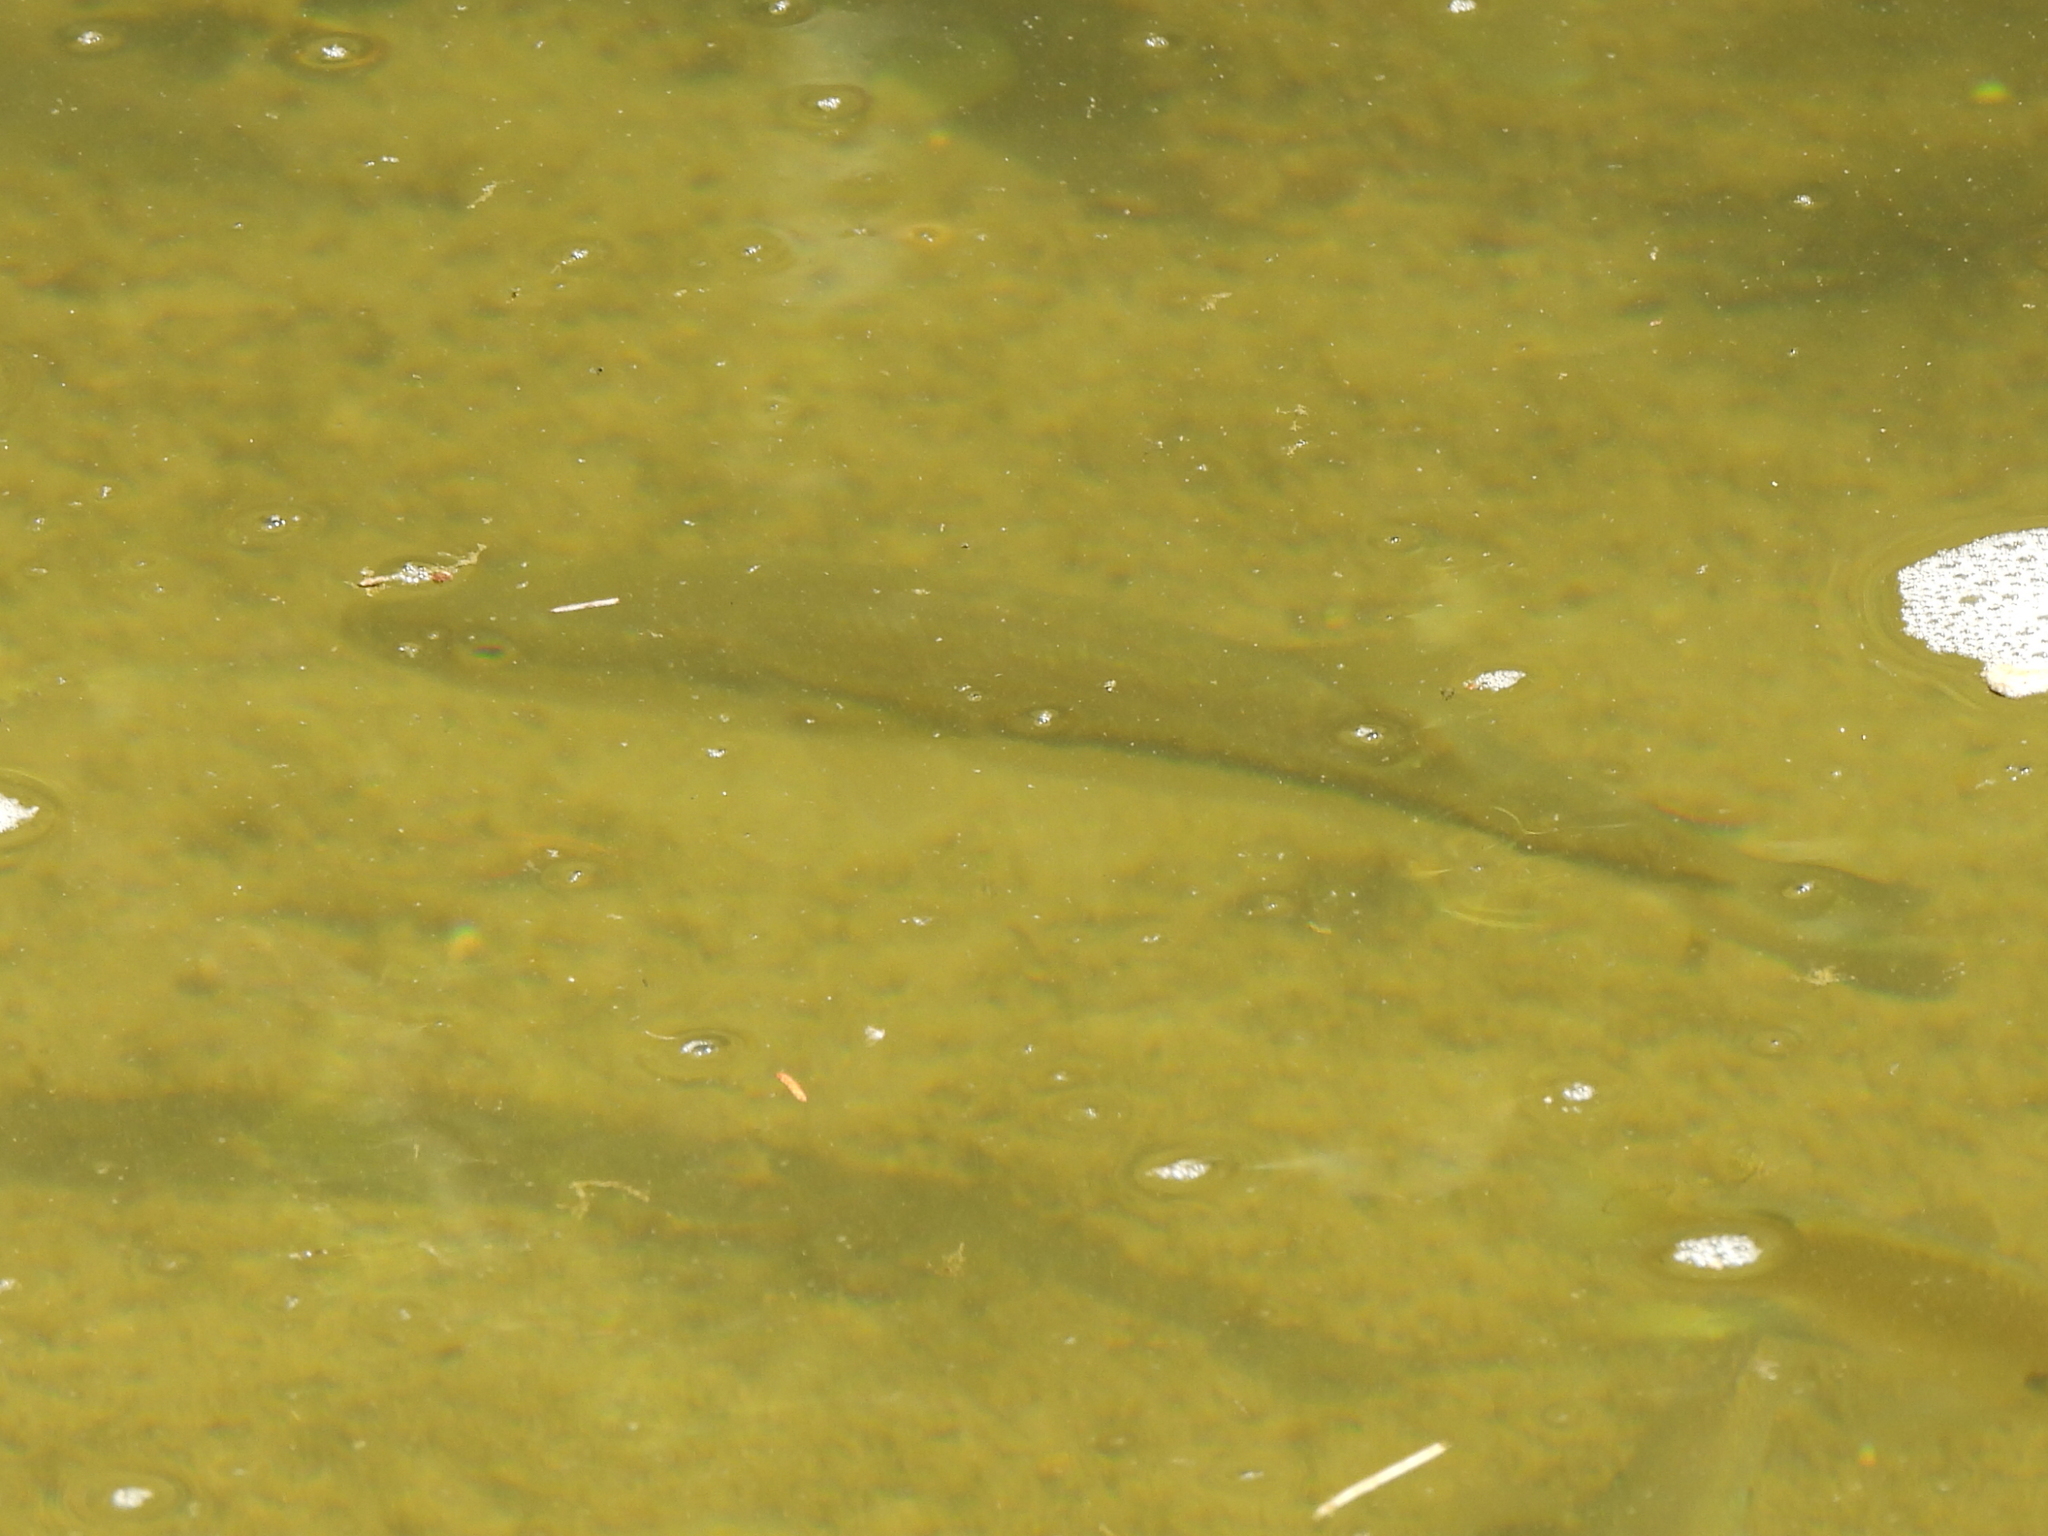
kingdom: Animalia
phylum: Chordata
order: Perciformes
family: Centrarchidae
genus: Micropterus
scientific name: Micropterus
